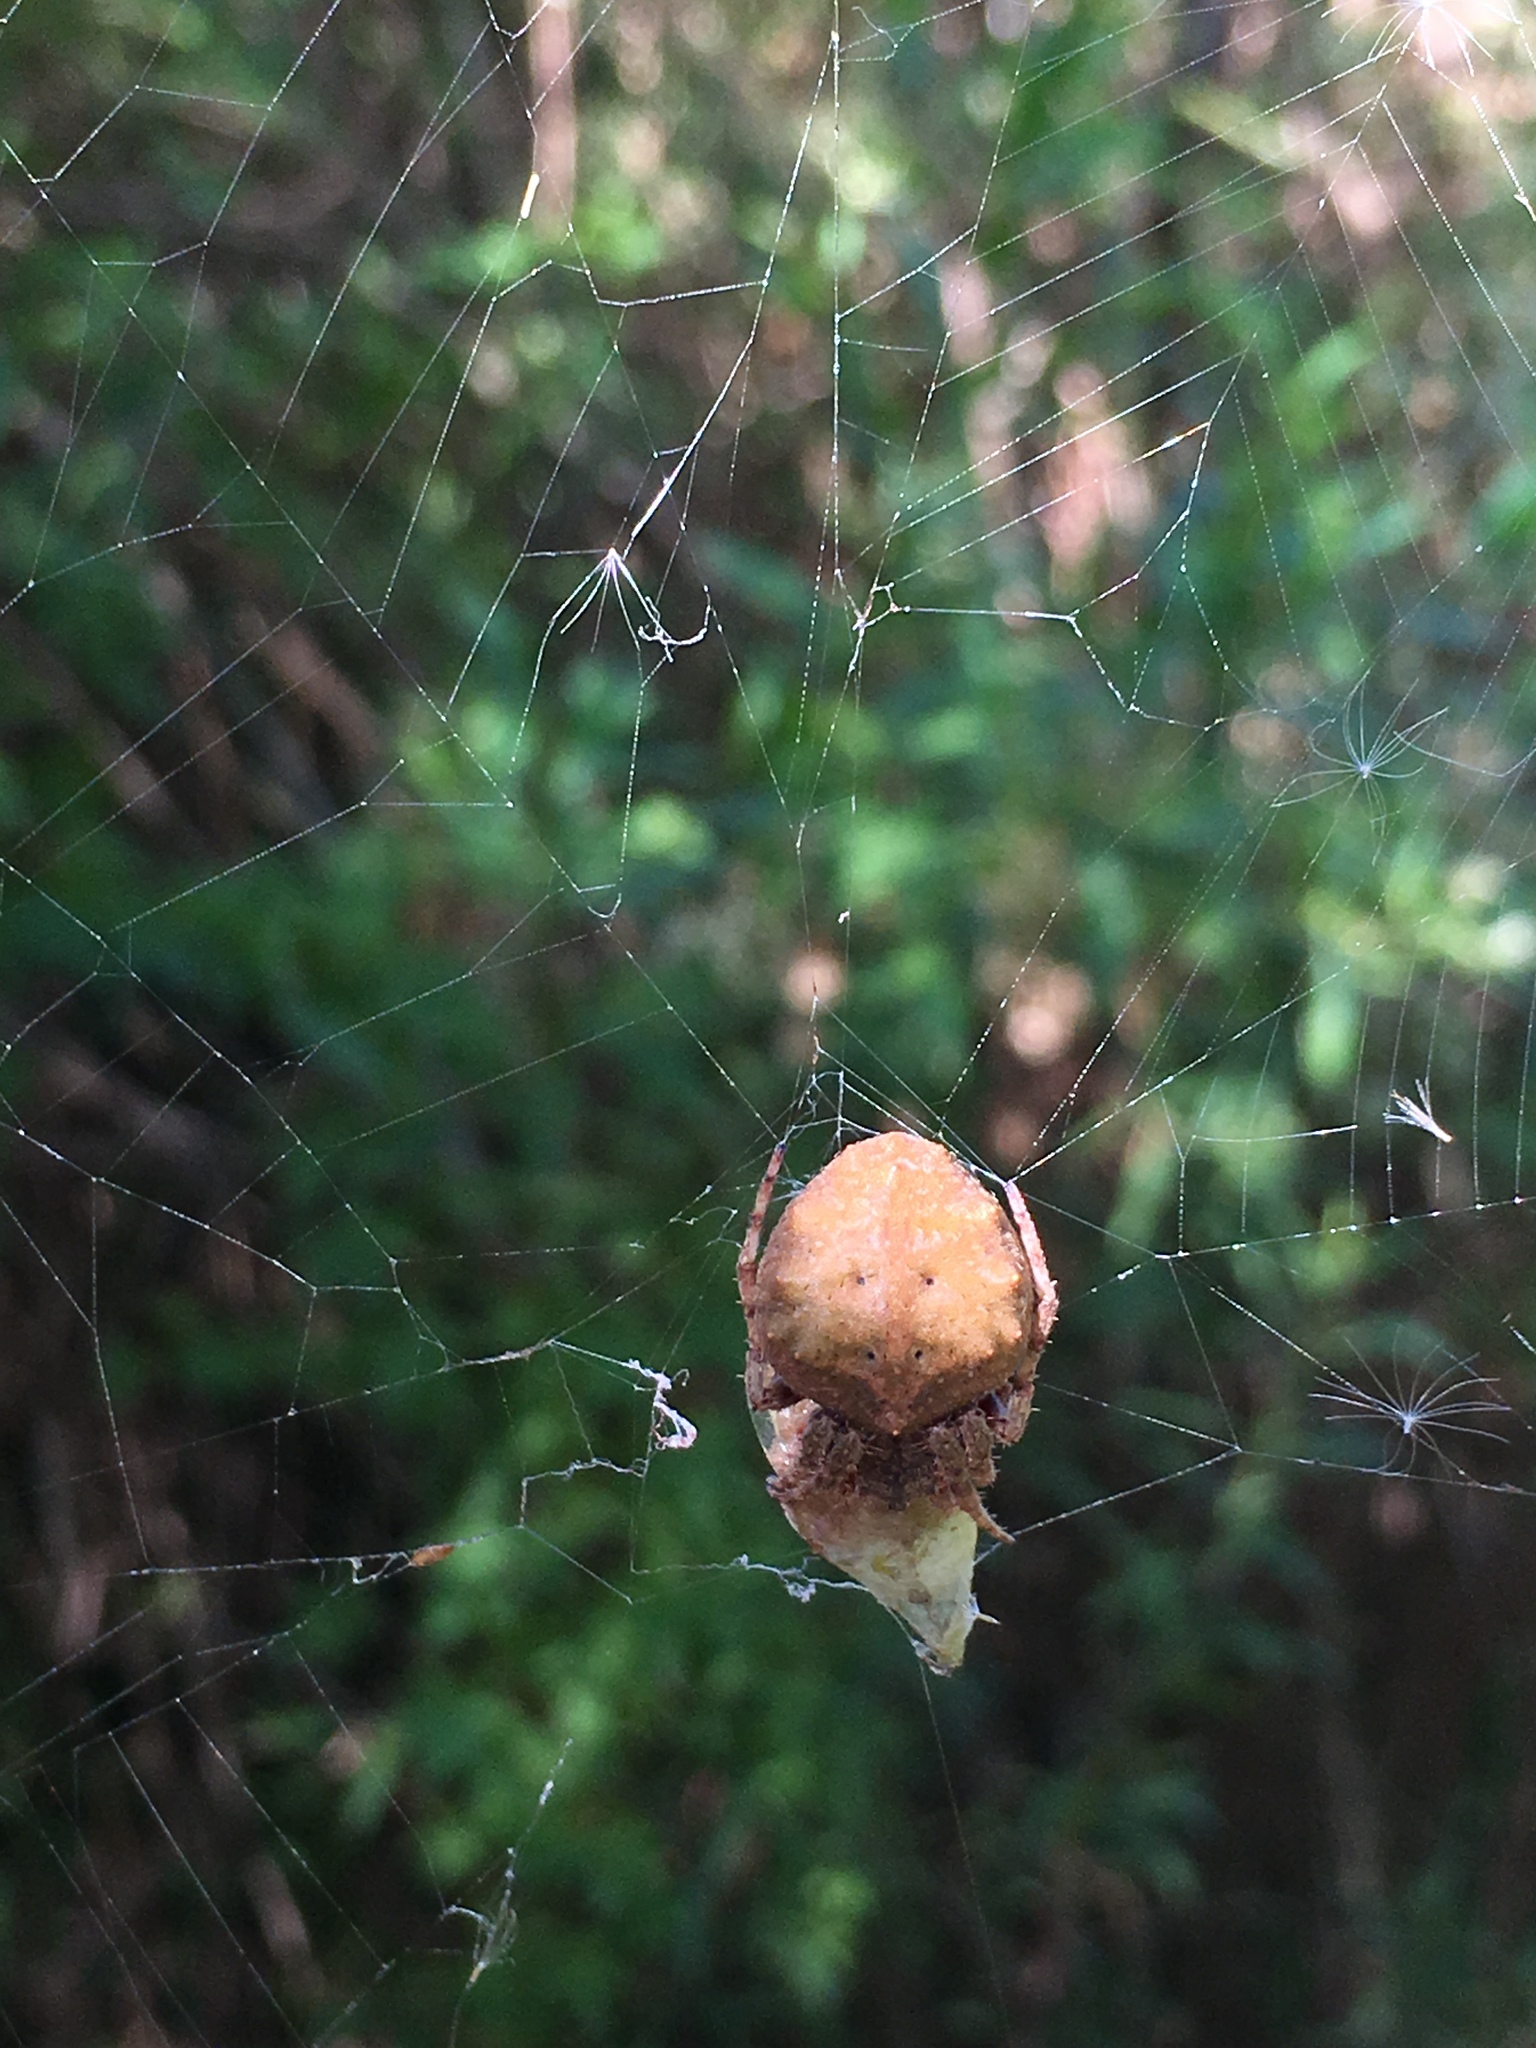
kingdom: Animalia
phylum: Arthropoda
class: Arachnida
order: Araneae
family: Araneidae
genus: Parawixia
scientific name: Parawixia audax
